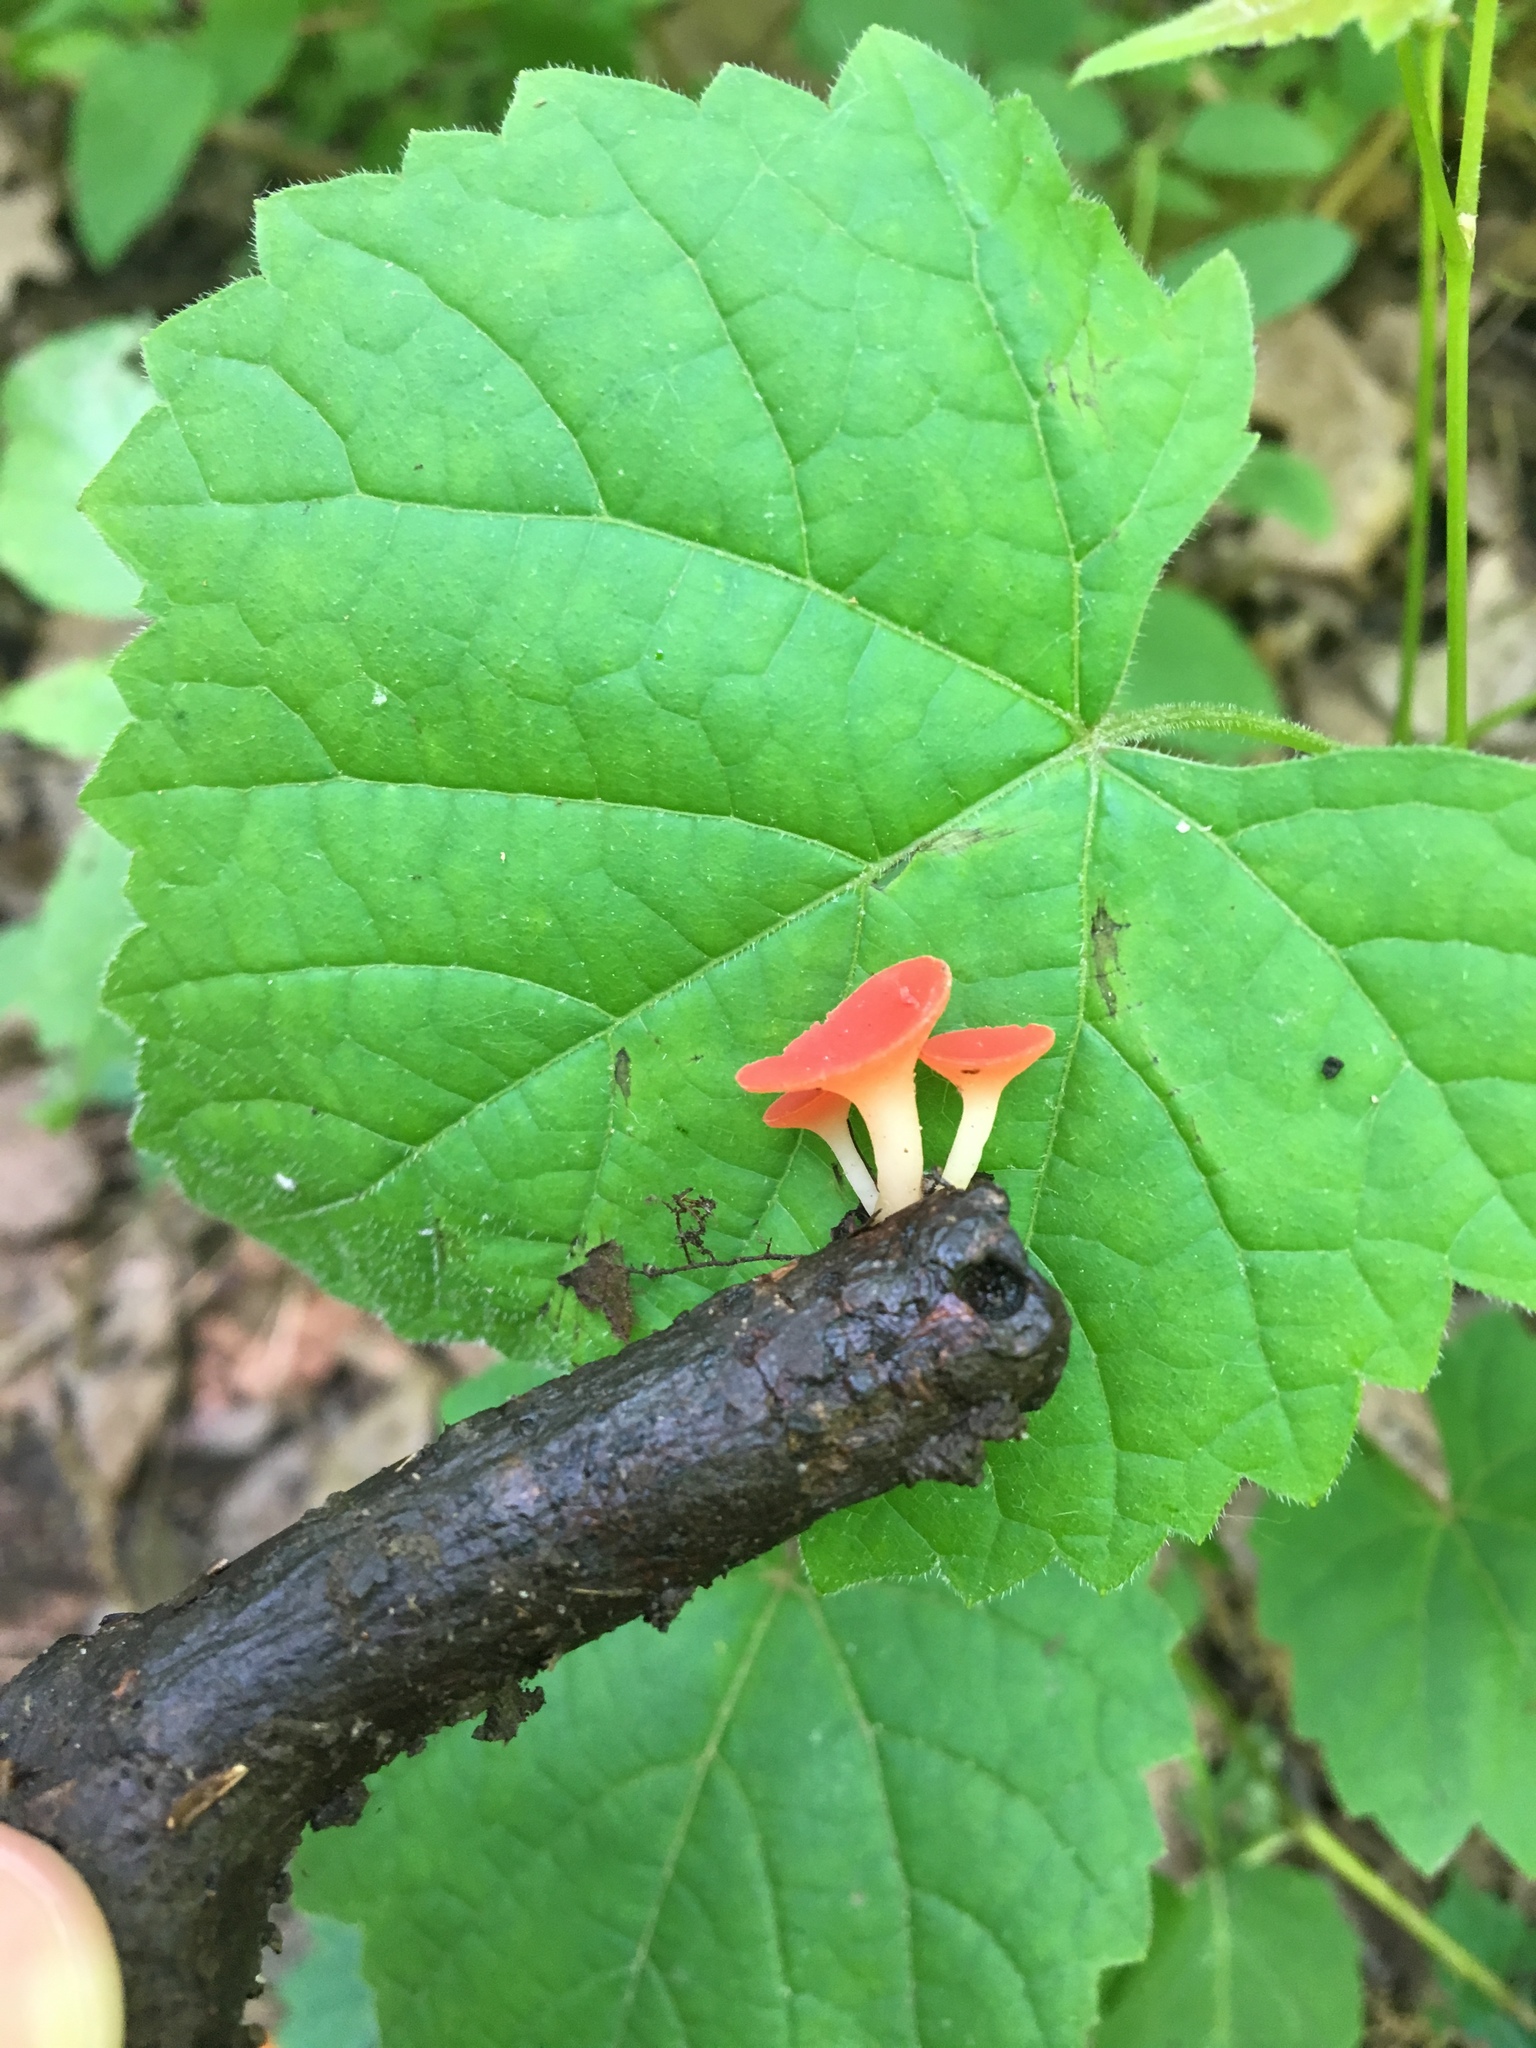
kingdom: Fungi
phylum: Ascomycota
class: Pezizomycetes
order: Pezizales
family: Sarcoscyphaceae
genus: Sarcoscypha
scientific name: Sarcoscypha occidentalis
